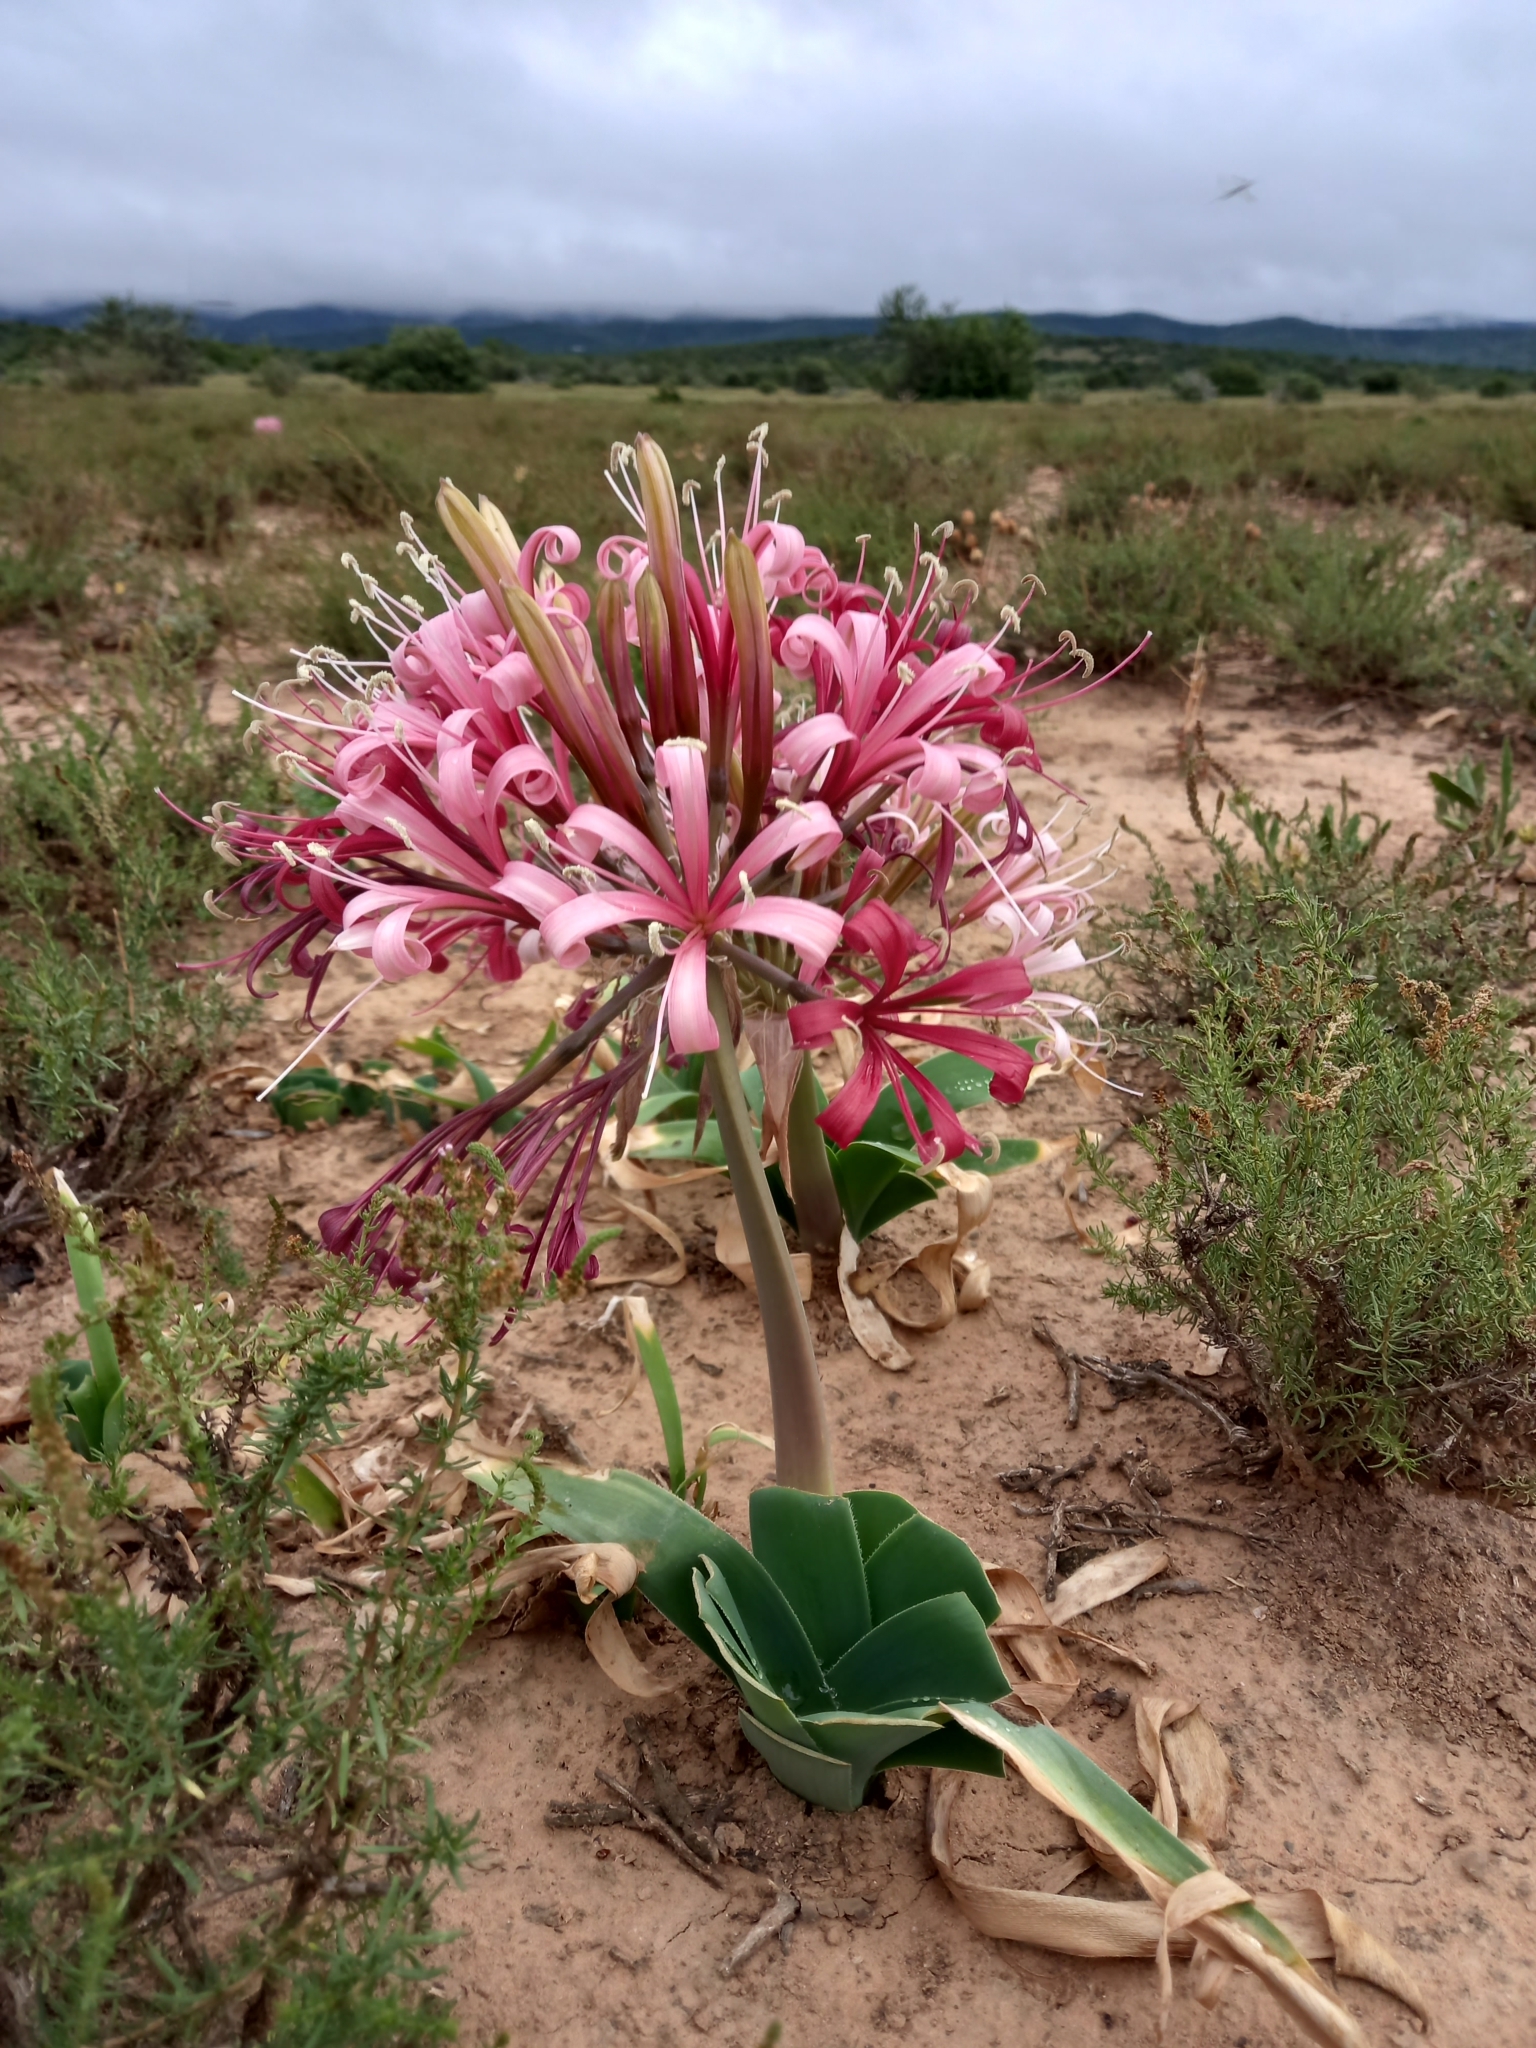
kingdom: Plantae
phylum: Tracheophyta
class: Liliopsida
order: Asparagales
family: Amaryllidaceae
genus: Ammocharis
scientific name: Ammocharis coranica
